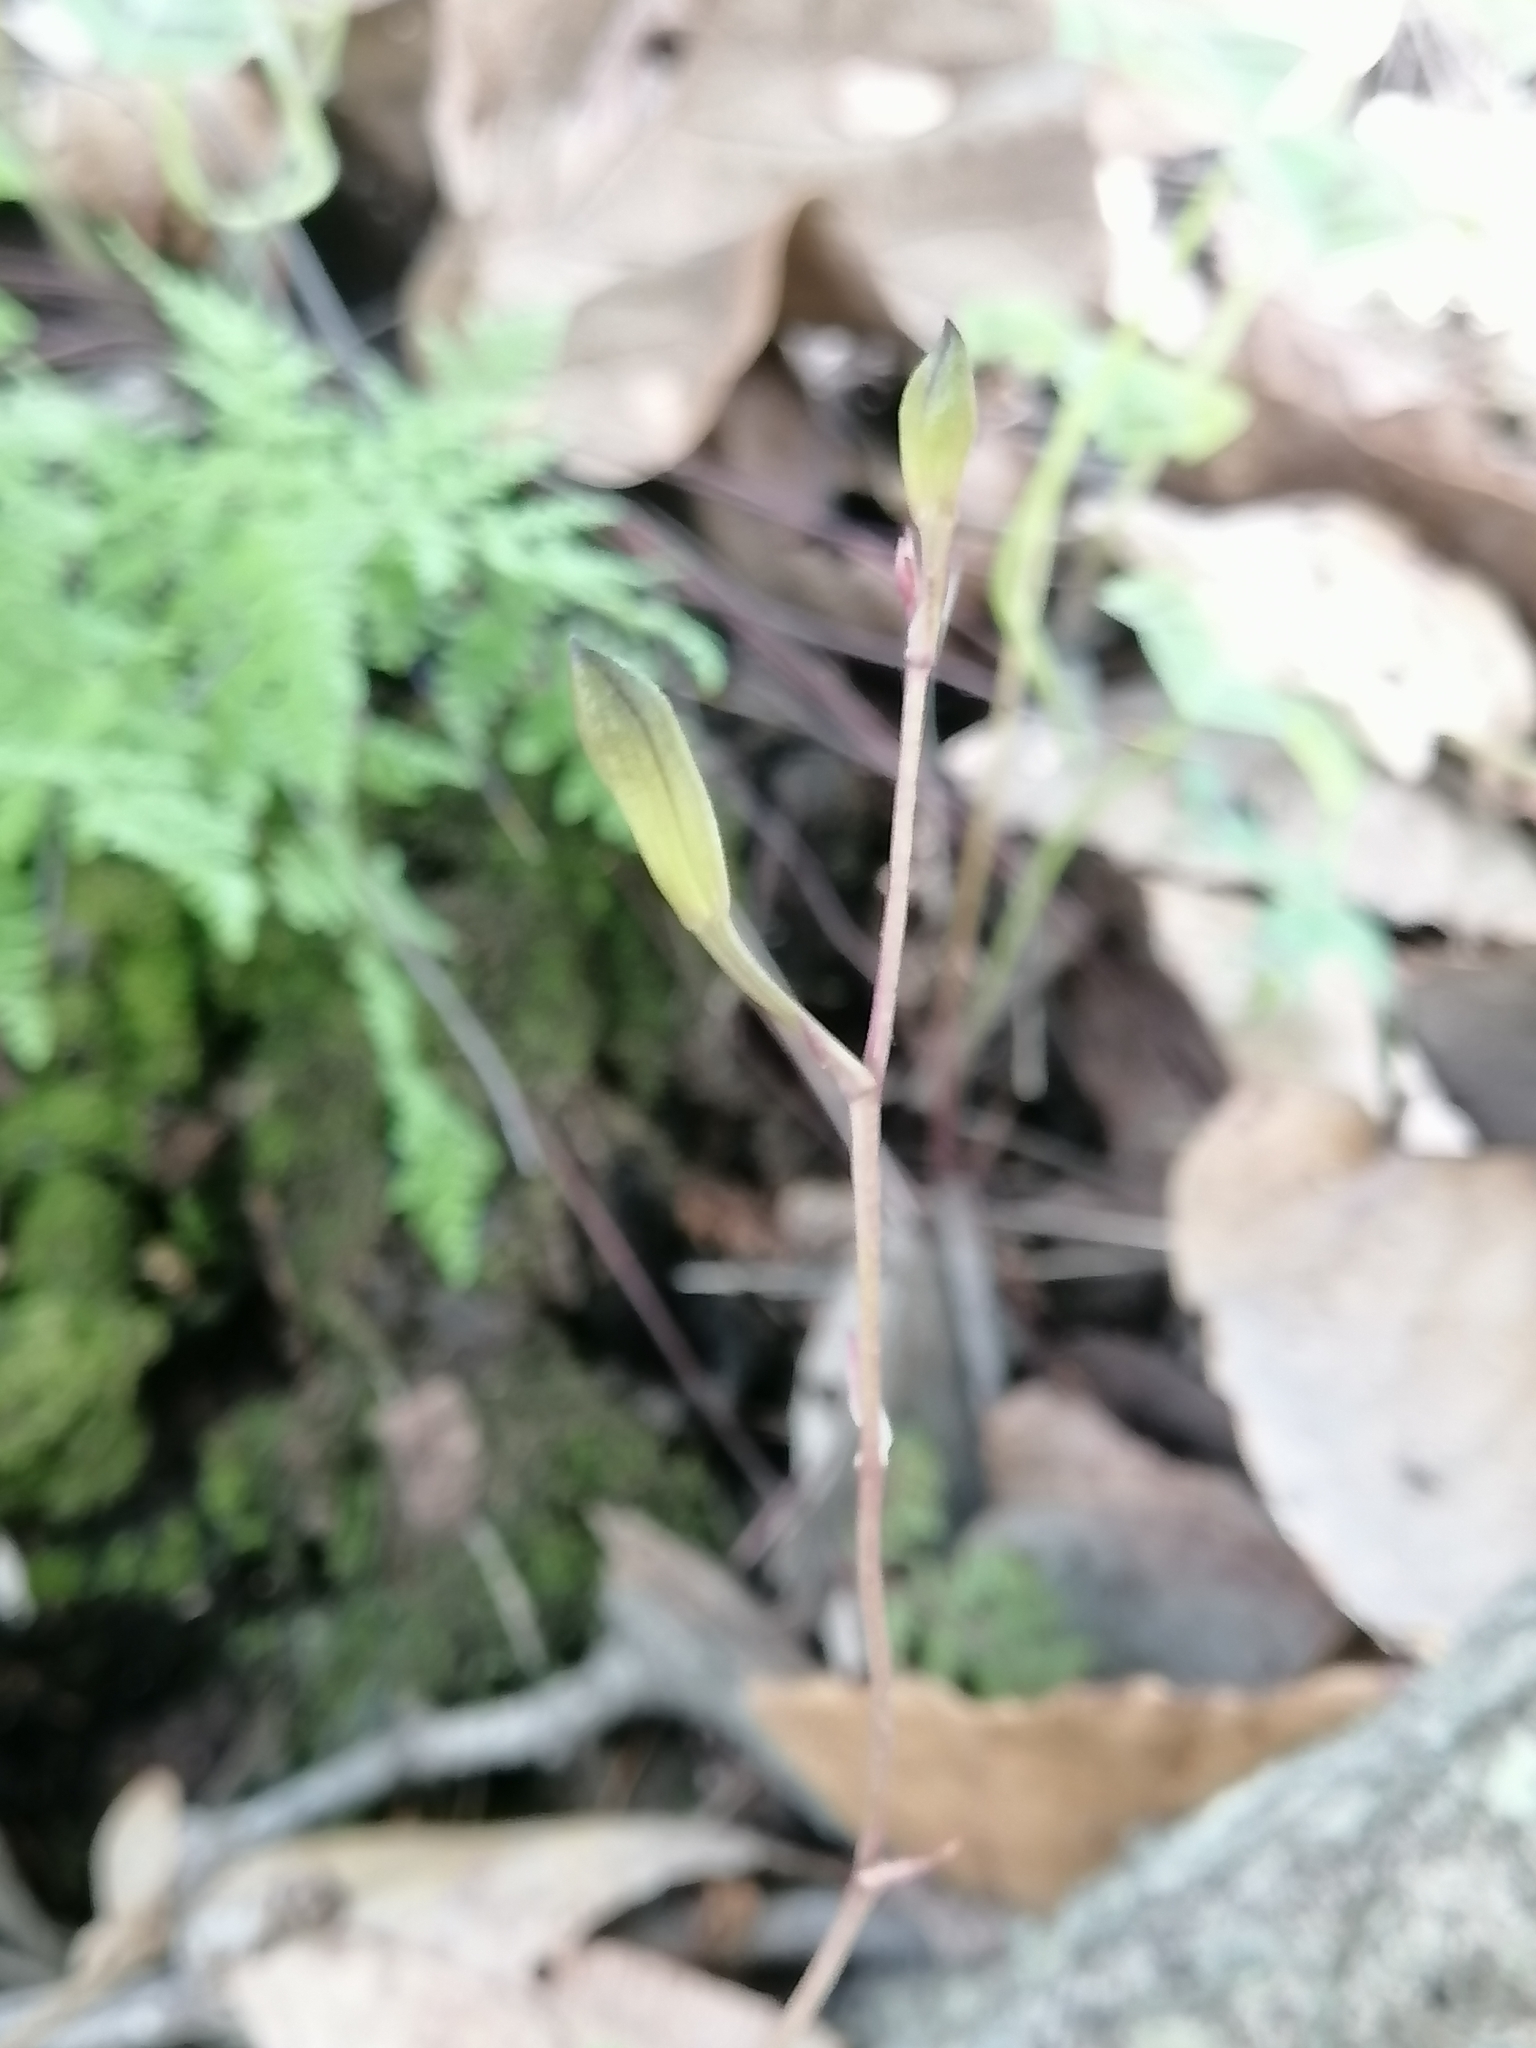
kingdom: Plantae
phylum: Tracheophyta
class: Liliopsida
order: Asparagales
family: Orchidaceae
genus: Bletia
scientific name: Bletia gracilis
